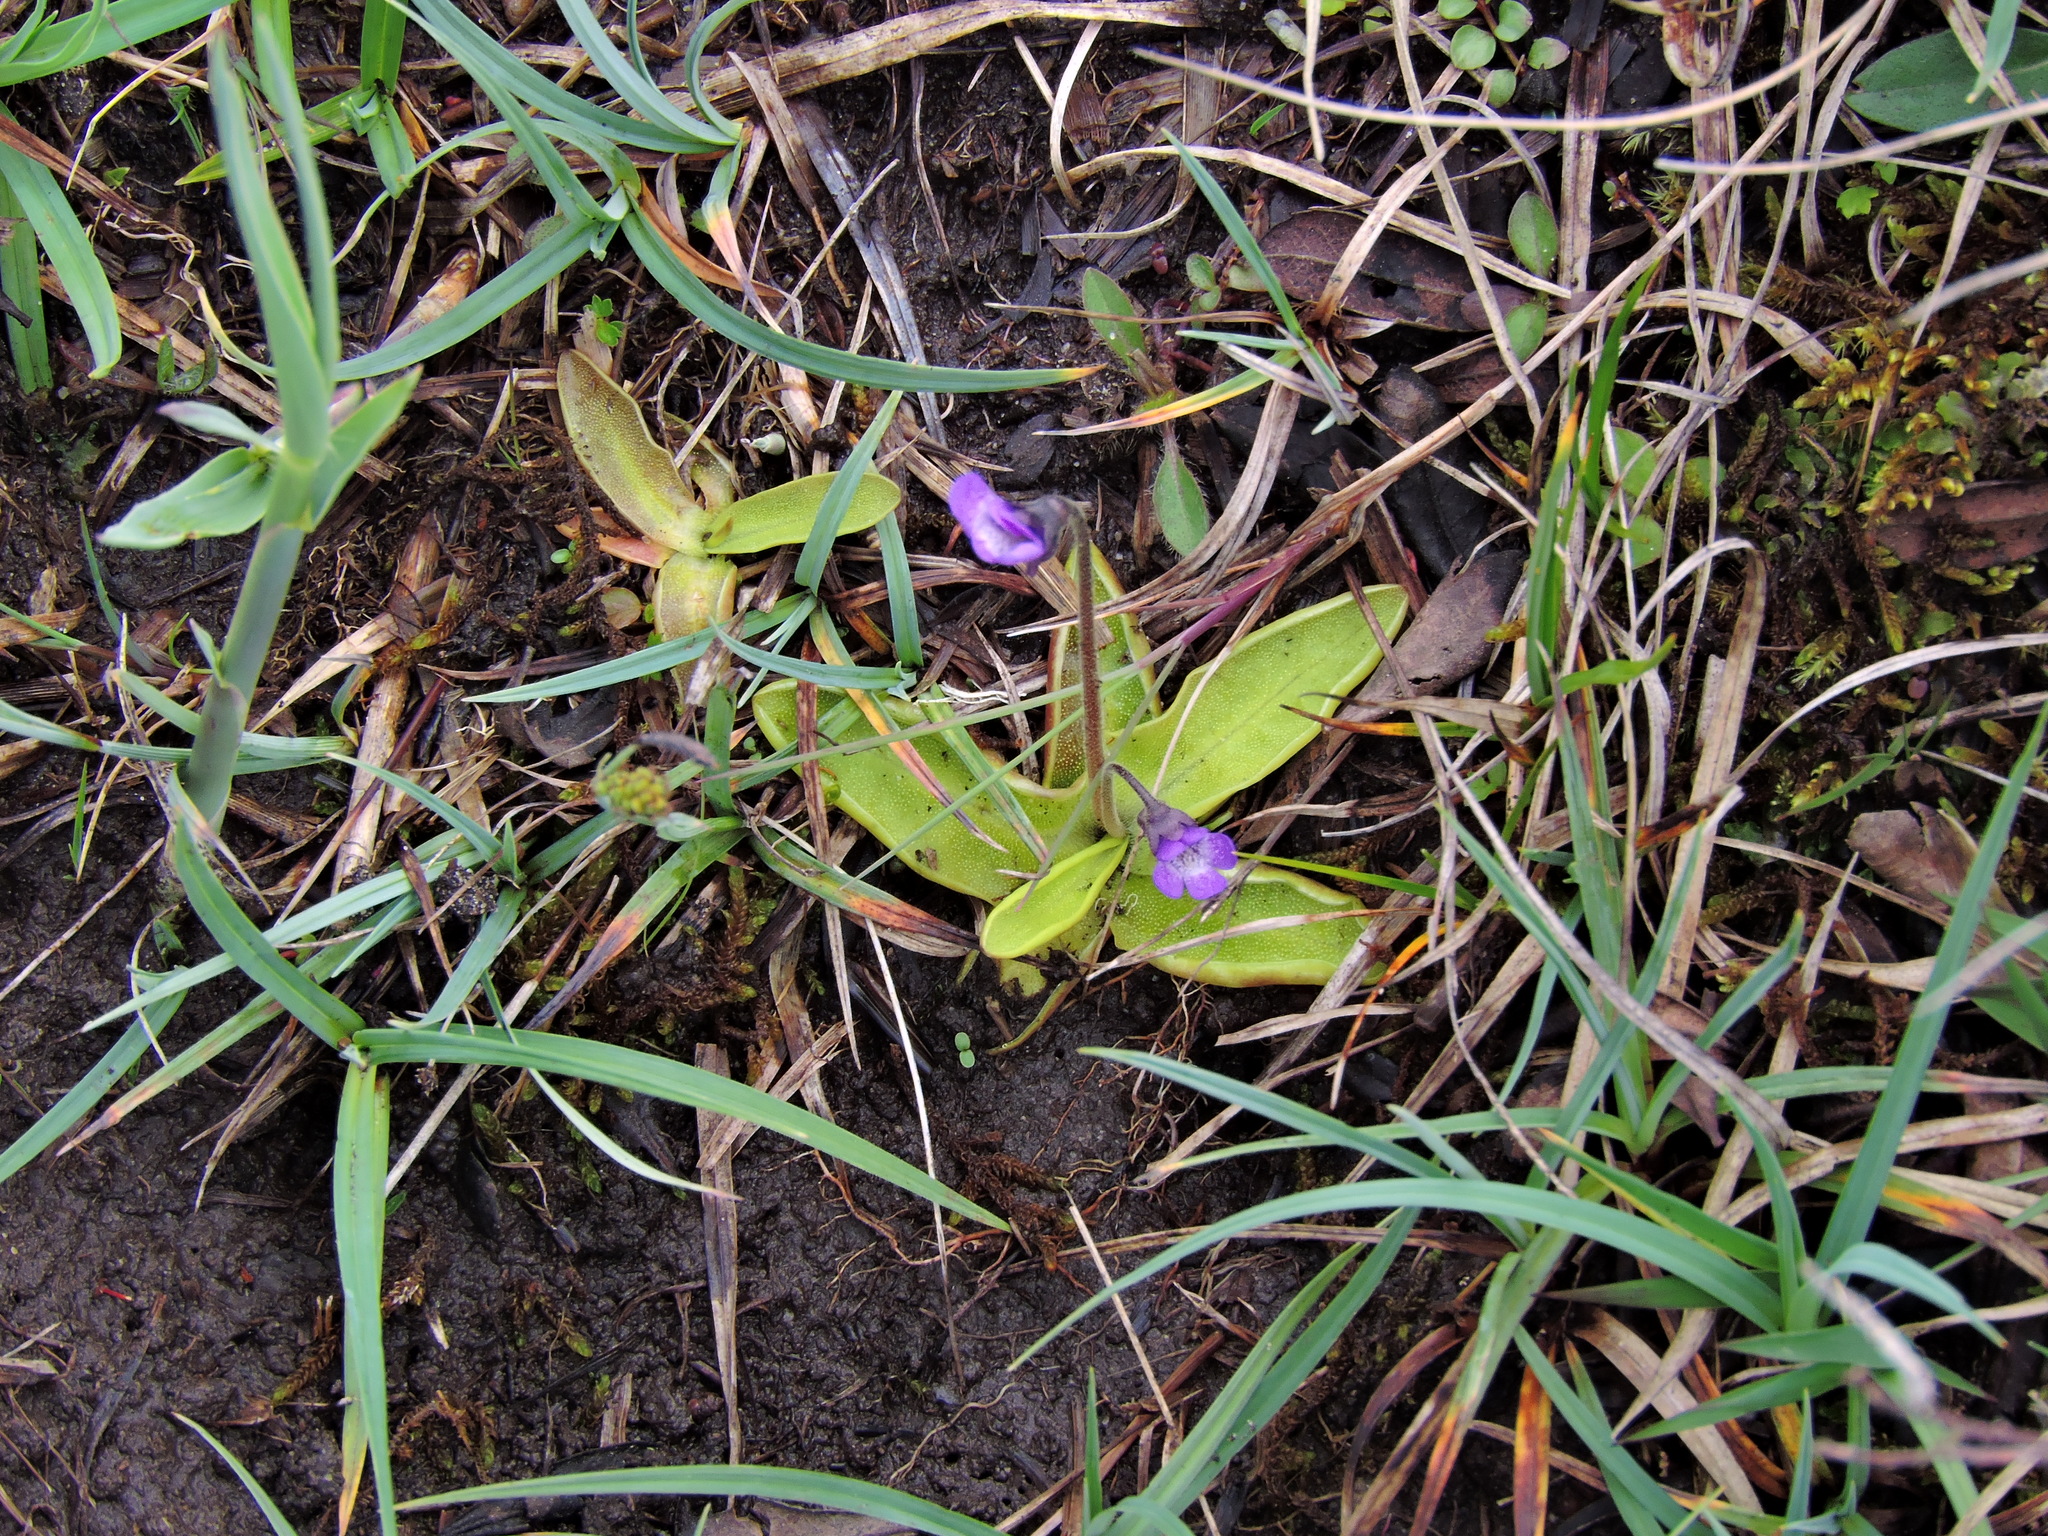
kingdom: Plantae
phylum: Tracheophyta
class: Magnoliopsida
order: Lamiales
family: Lentibulariaceae
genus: Pinguicula
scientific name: Pinguicula vulgaris
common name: Common butterwort
